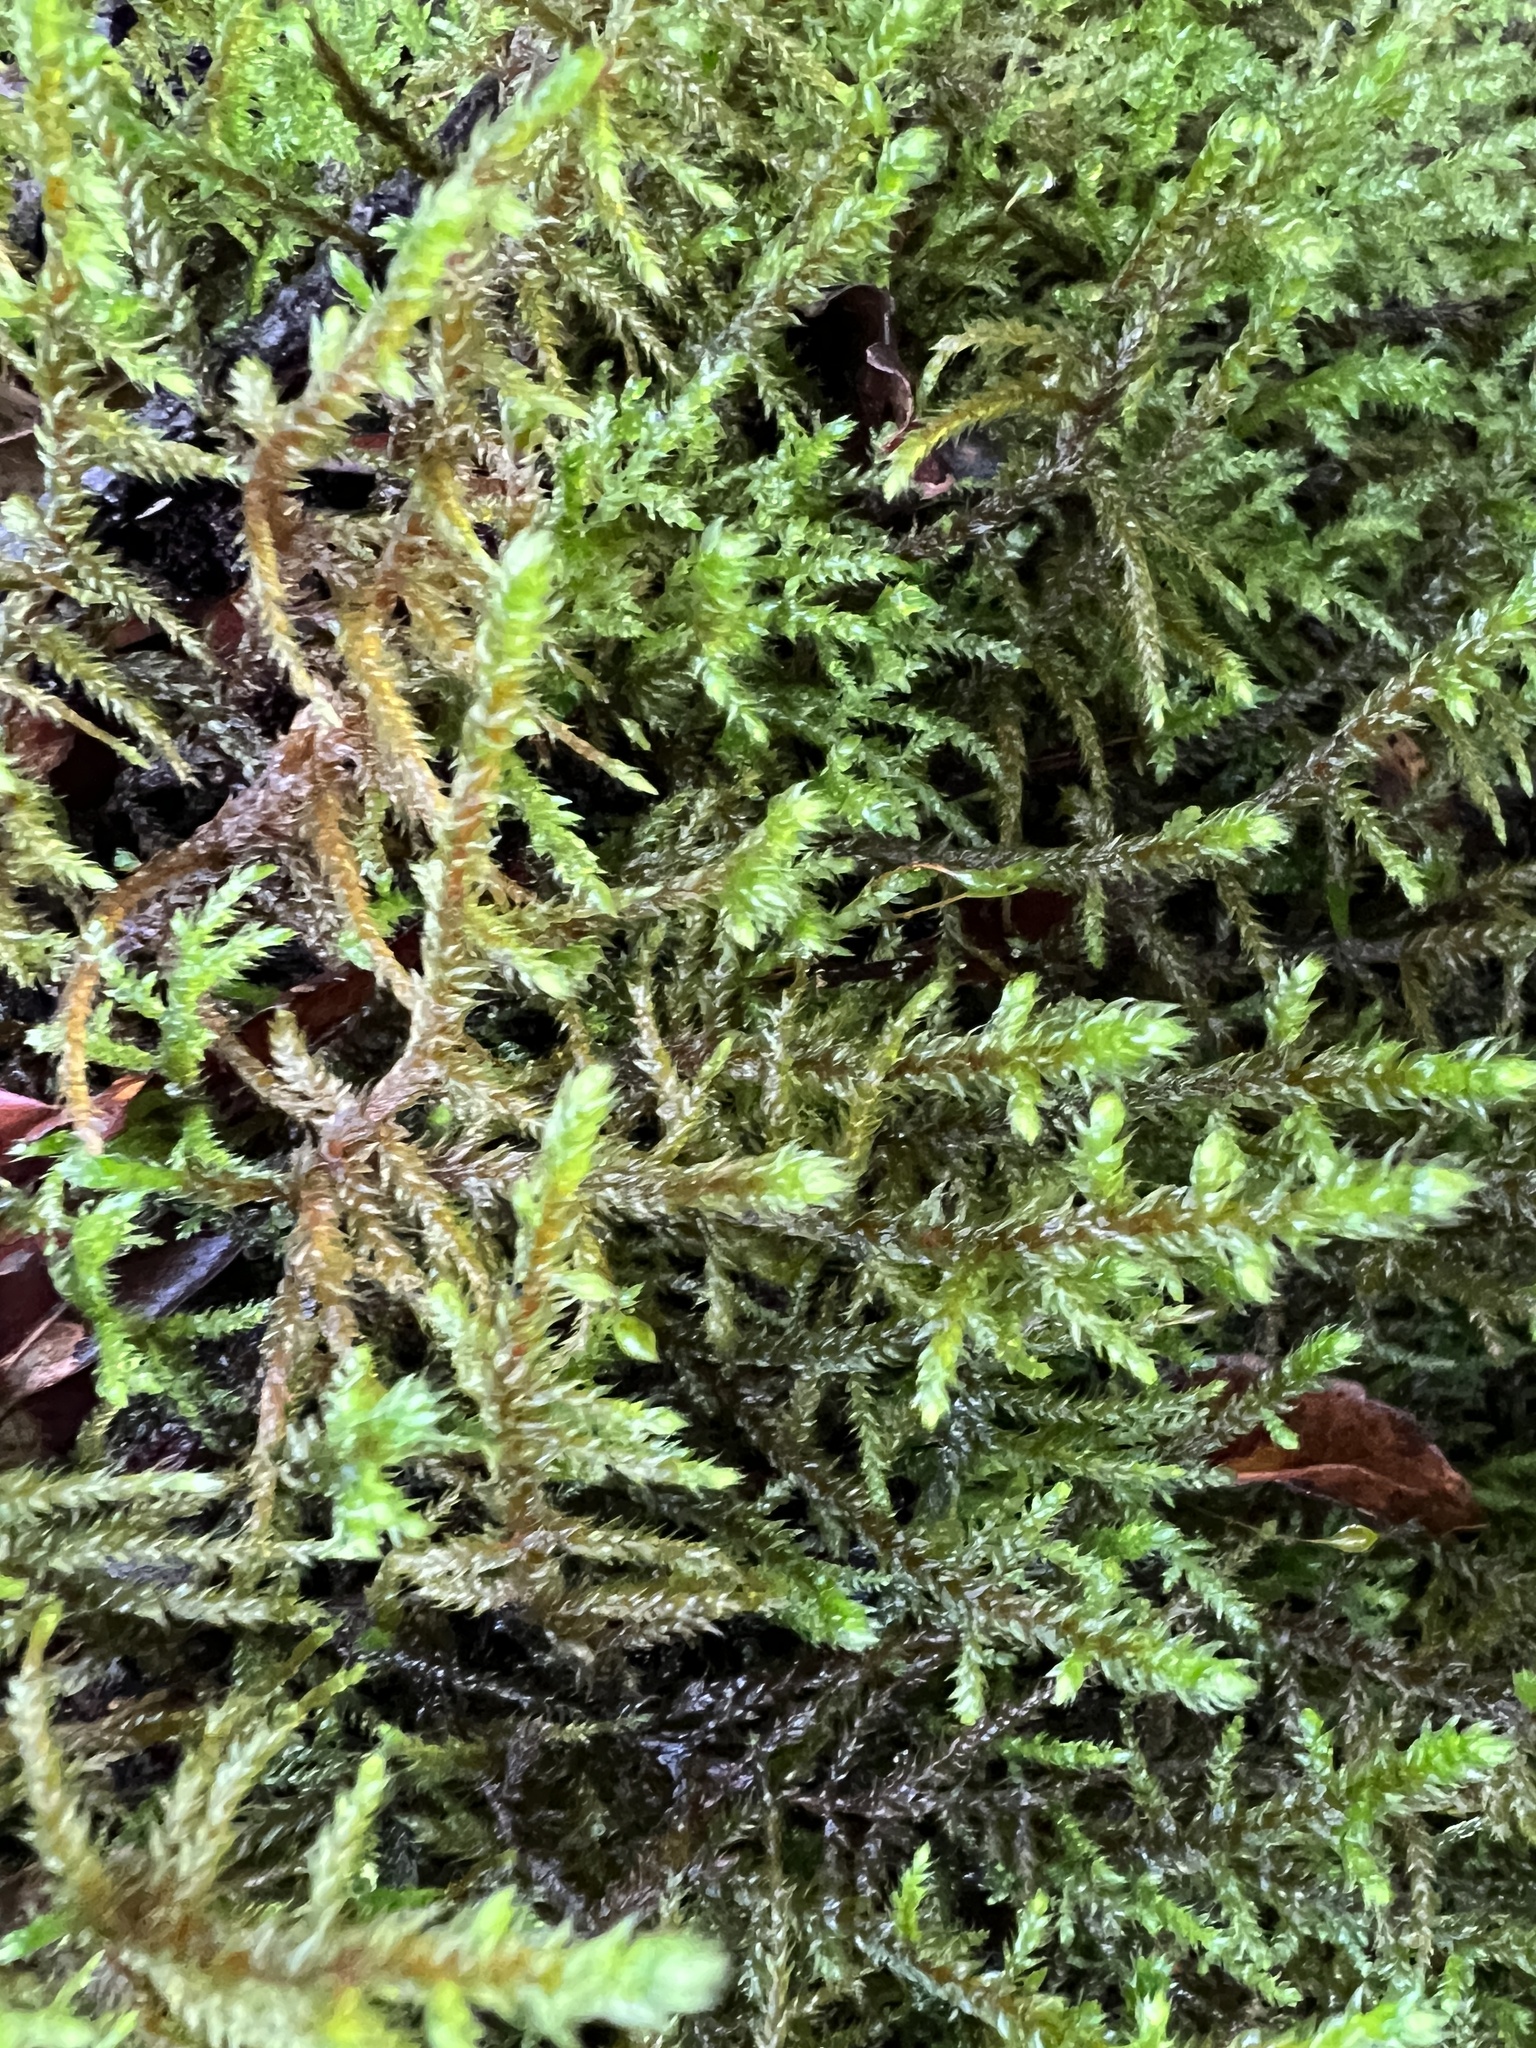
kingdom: Plantae
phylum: Bryophyta
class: Bryopsida
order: Hypnales
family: Antitrichiaceae
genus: Antitrichia
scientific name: Antitrichia curtipendula
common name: Pendulous wing-moss
